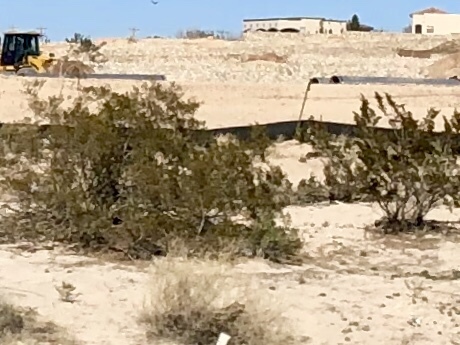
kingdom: Plantae
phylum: Tracheophyta
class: Magnoliopsida
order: Zygophyllales
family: Zygophyllaceae
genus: Larrea
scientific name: Larrea tridentata
